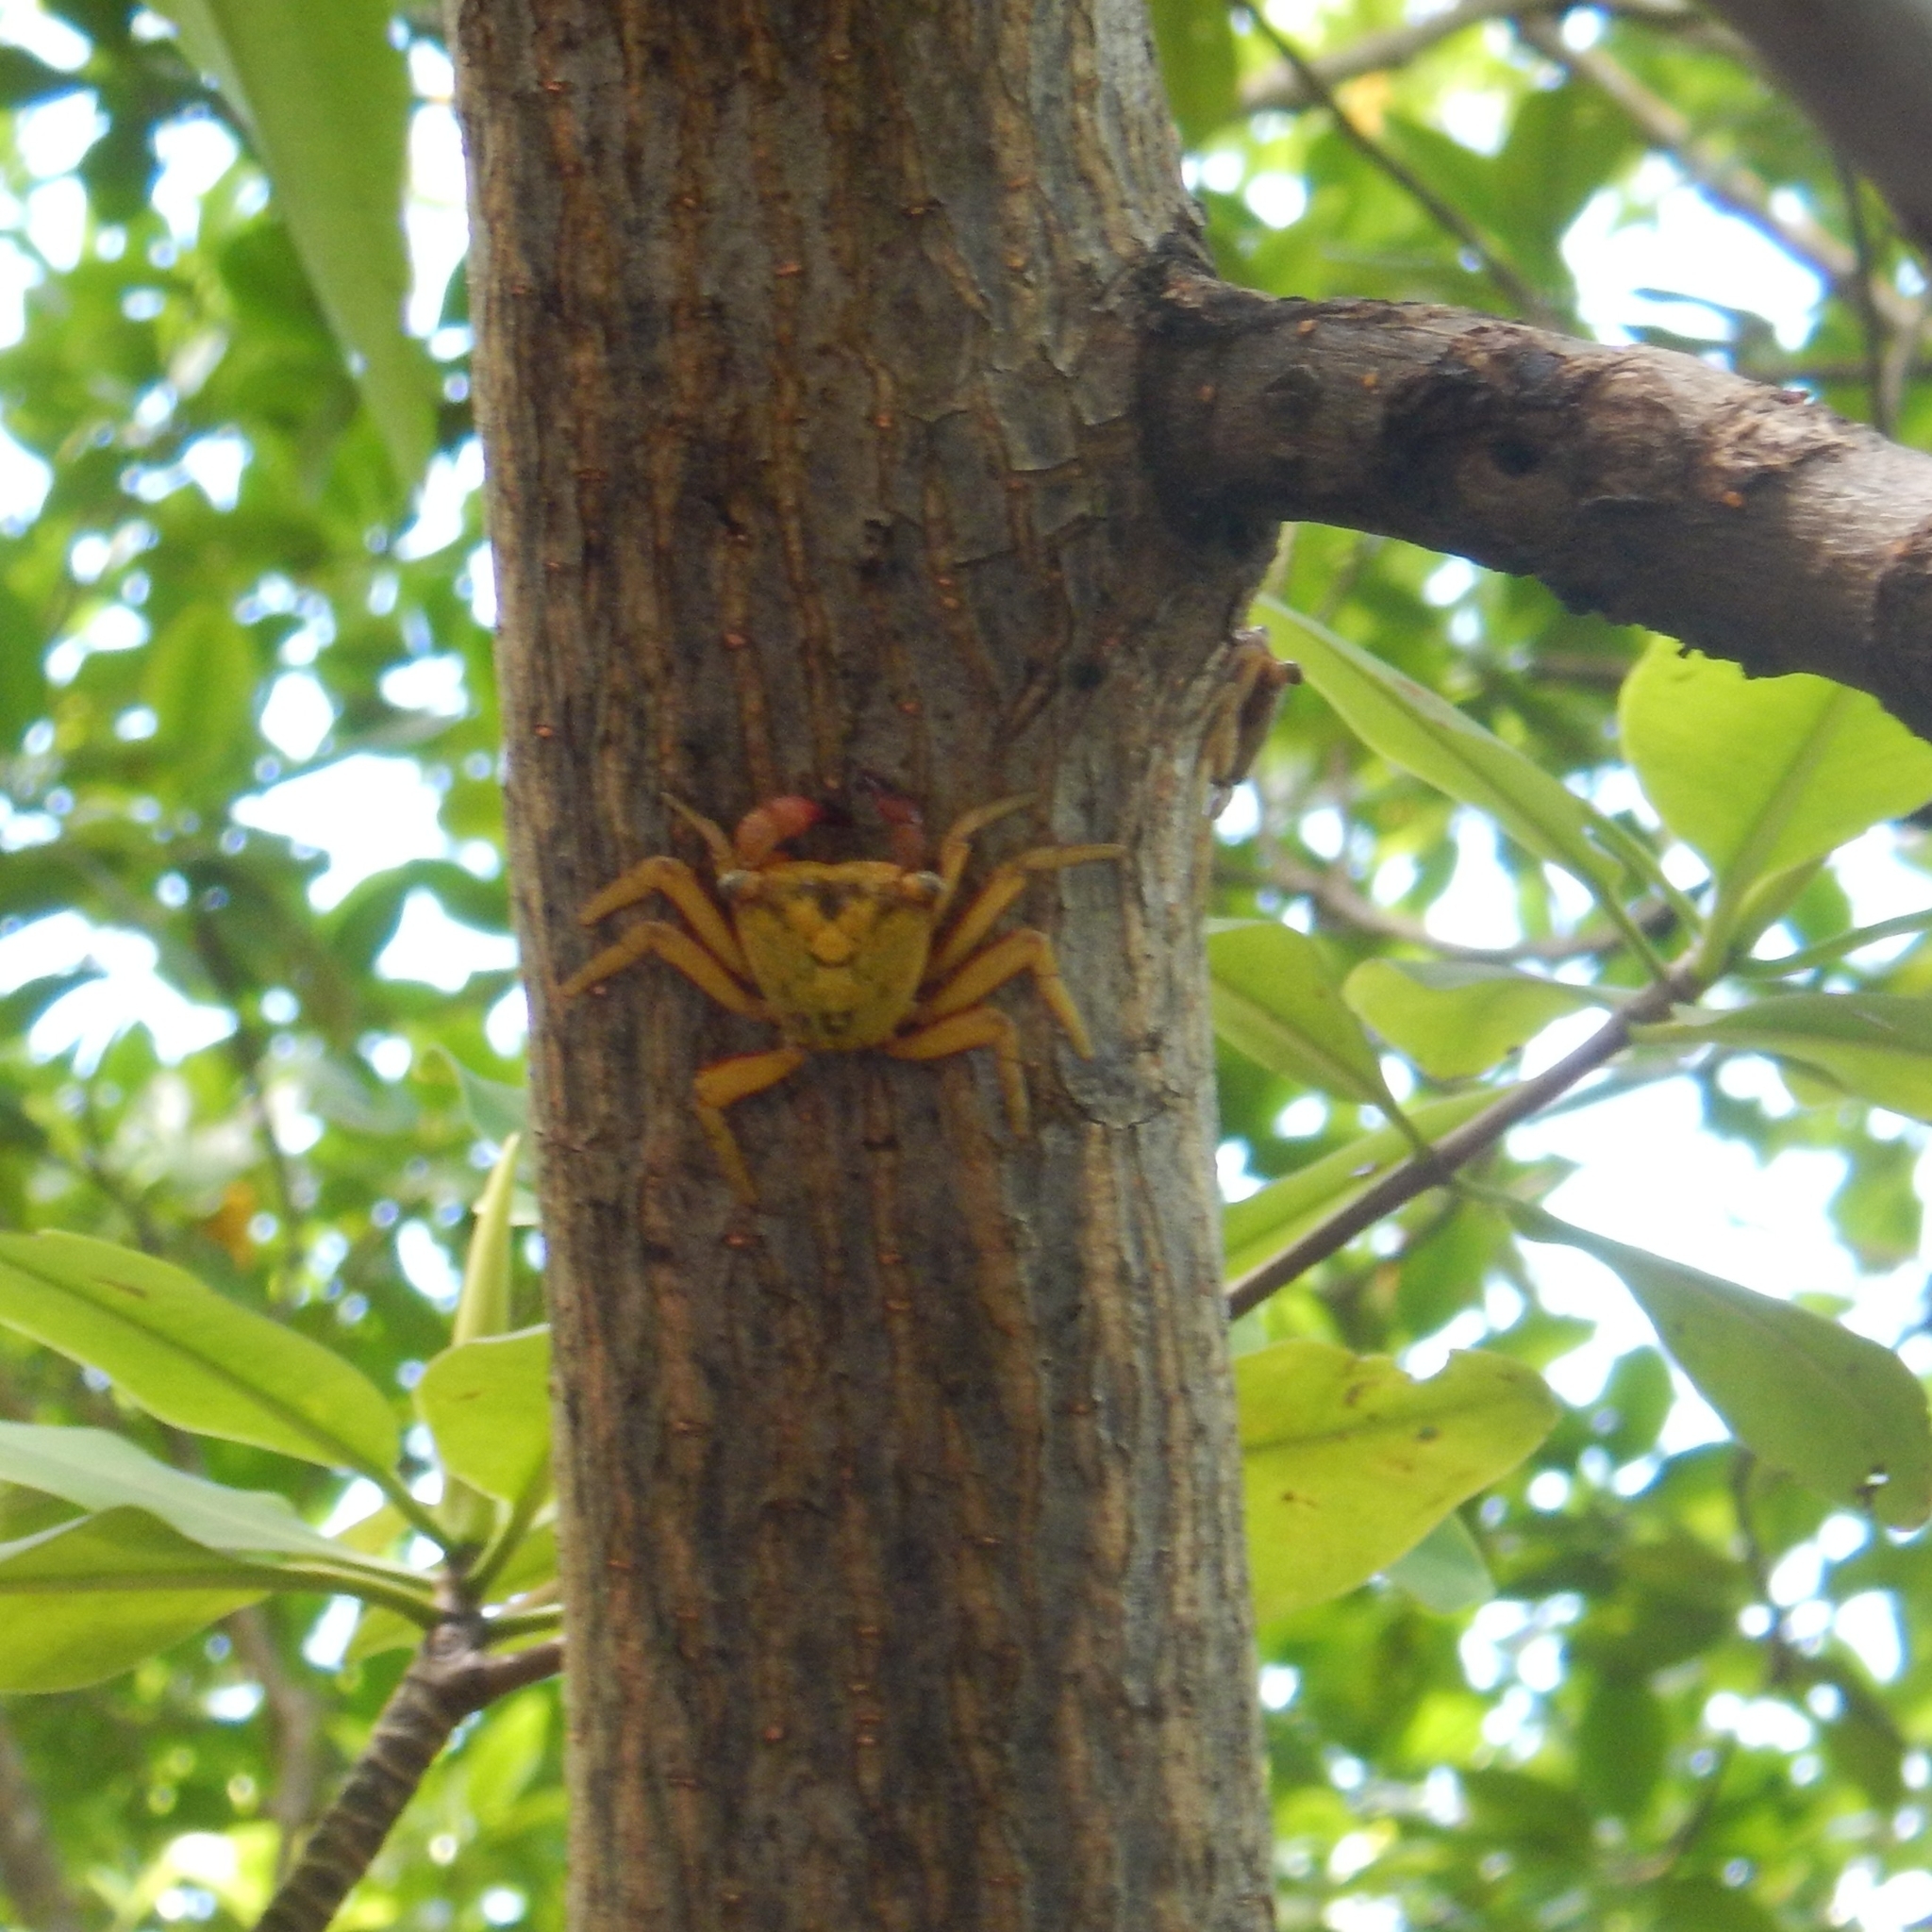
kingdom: Animalia
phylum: Arthropoda
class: Malacostraca
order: Decapoda
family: Sesarmidae
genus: Aratus
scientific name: Aratus pisonii
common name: Mangrove crab
